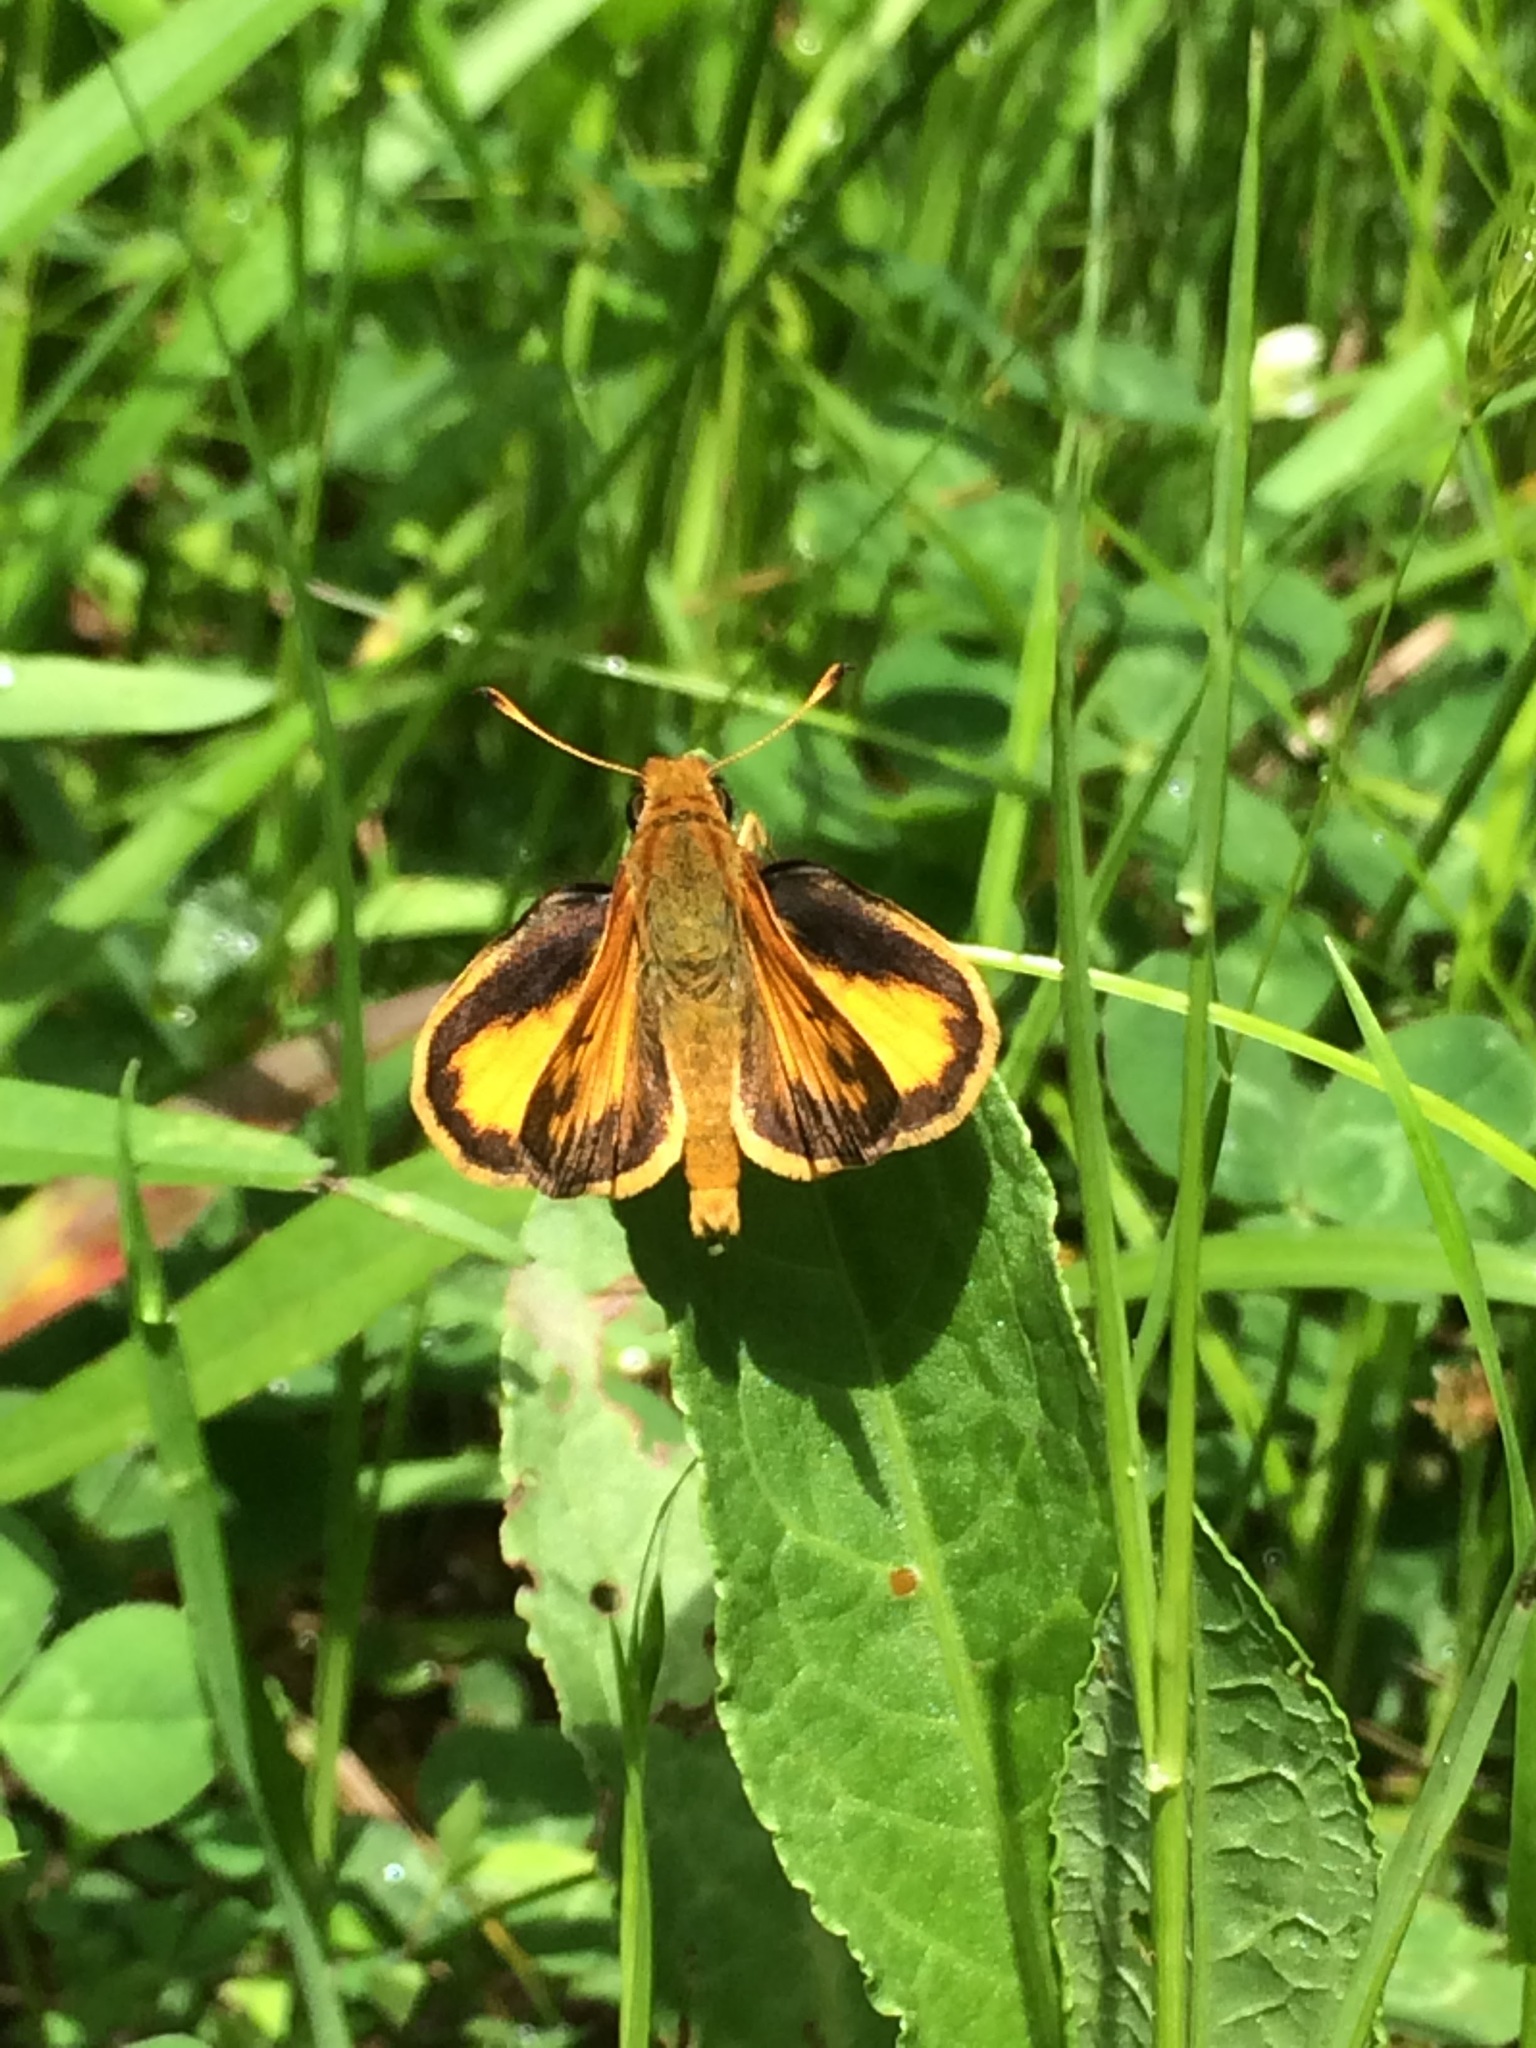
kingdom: Animalia
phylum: Arthropoda
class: Insecta
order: Lepidoptera
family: Hesperiidae
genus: Lon
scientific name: Lon zabulon
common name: Zabulon skipper
